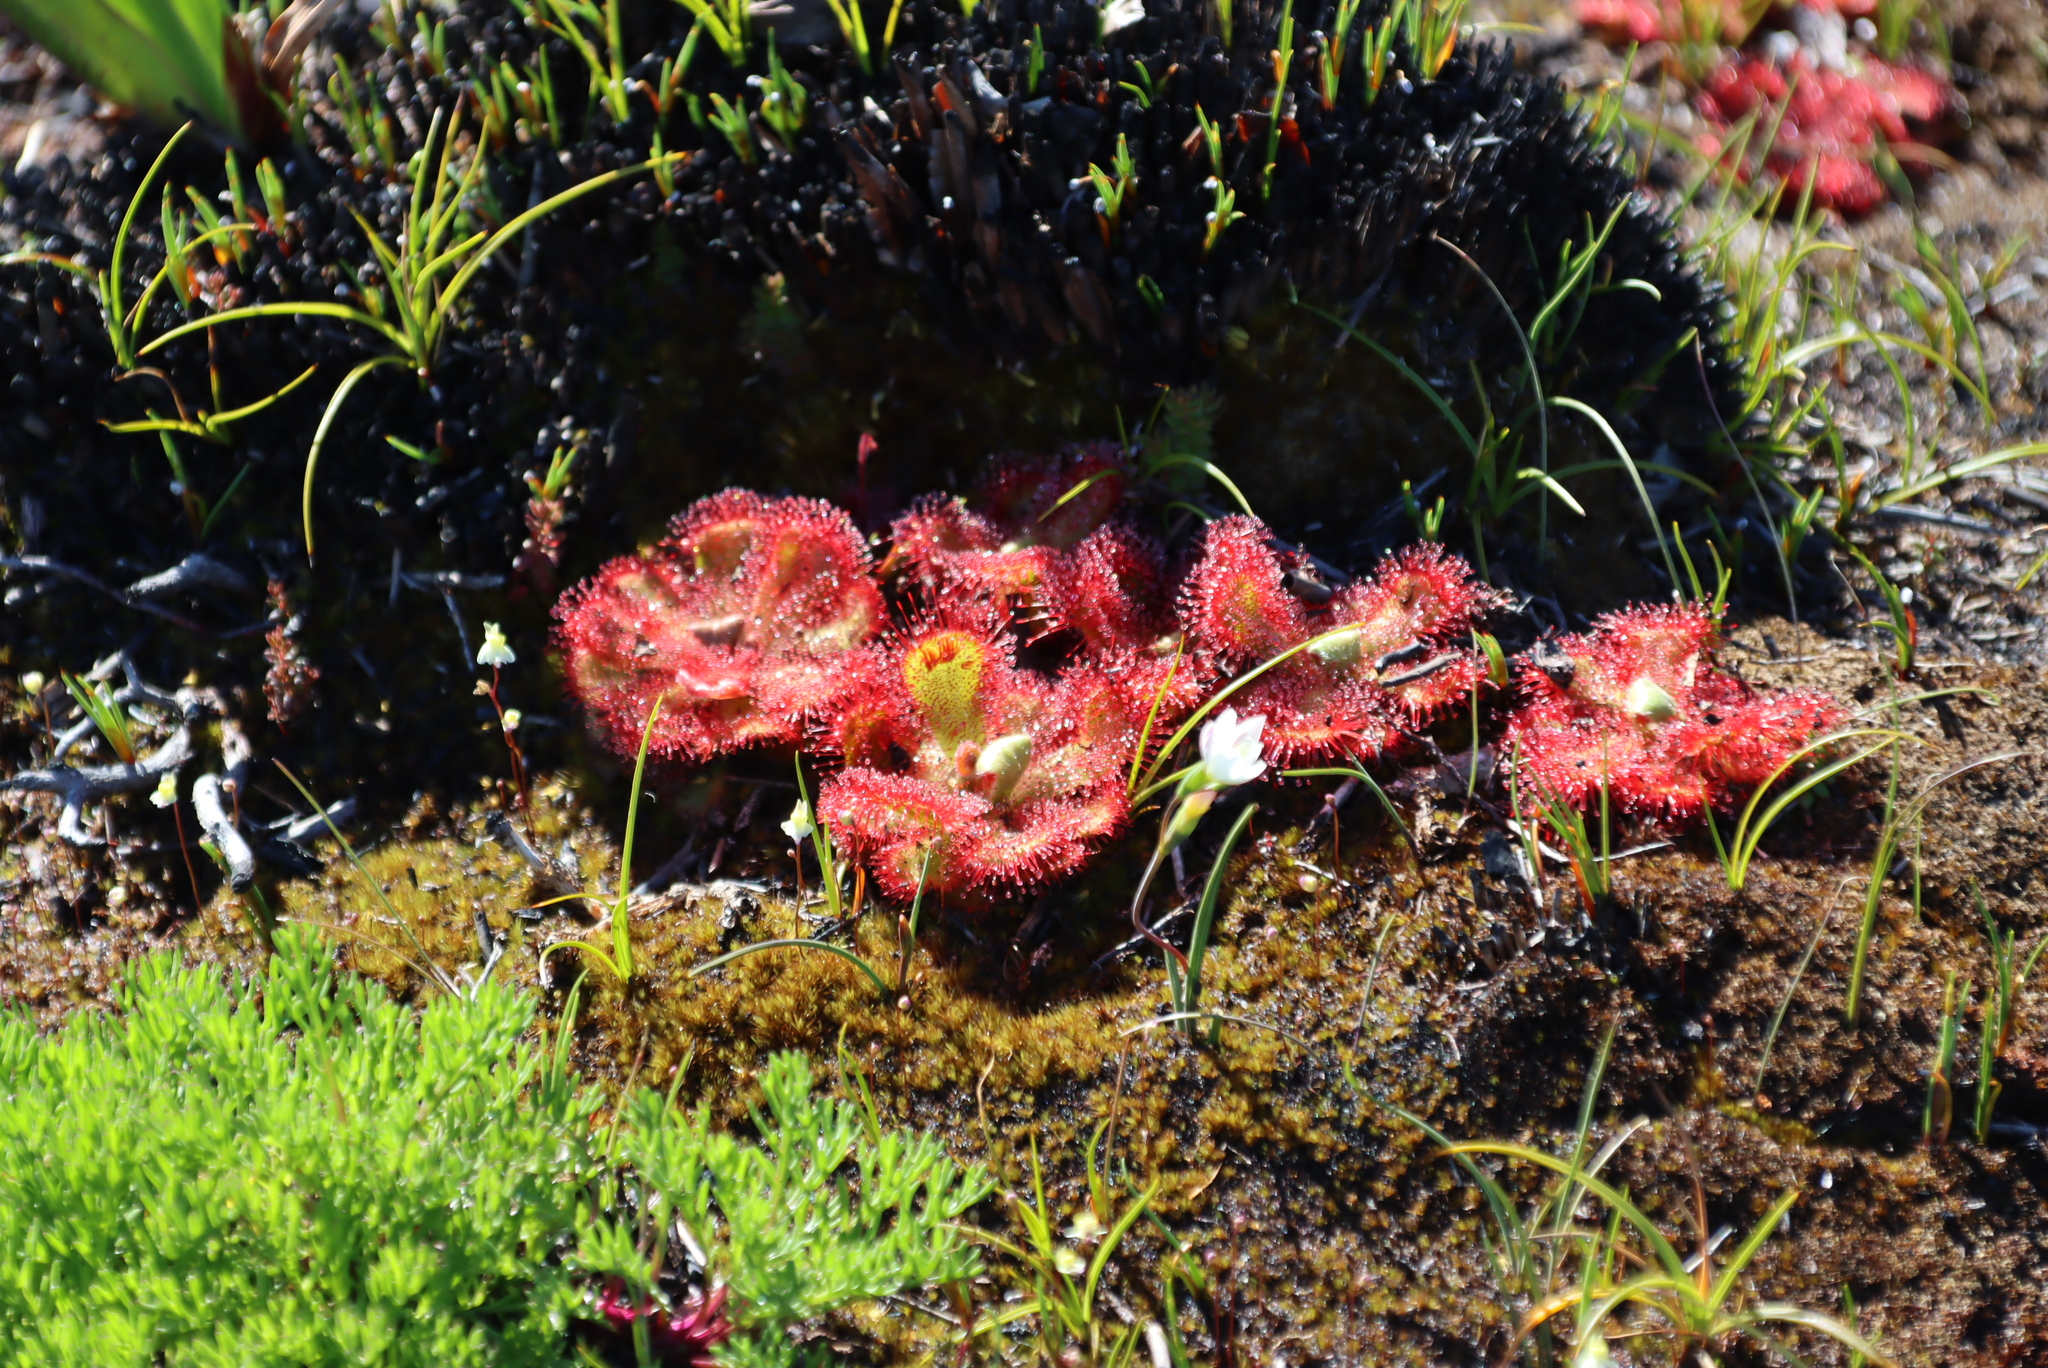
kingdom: Plantae
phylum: Tracheophyta
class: Magnoliopsida
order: Caryophyllales
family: Droseraceae
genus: Drosera
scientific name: Drosera cuneifolia
